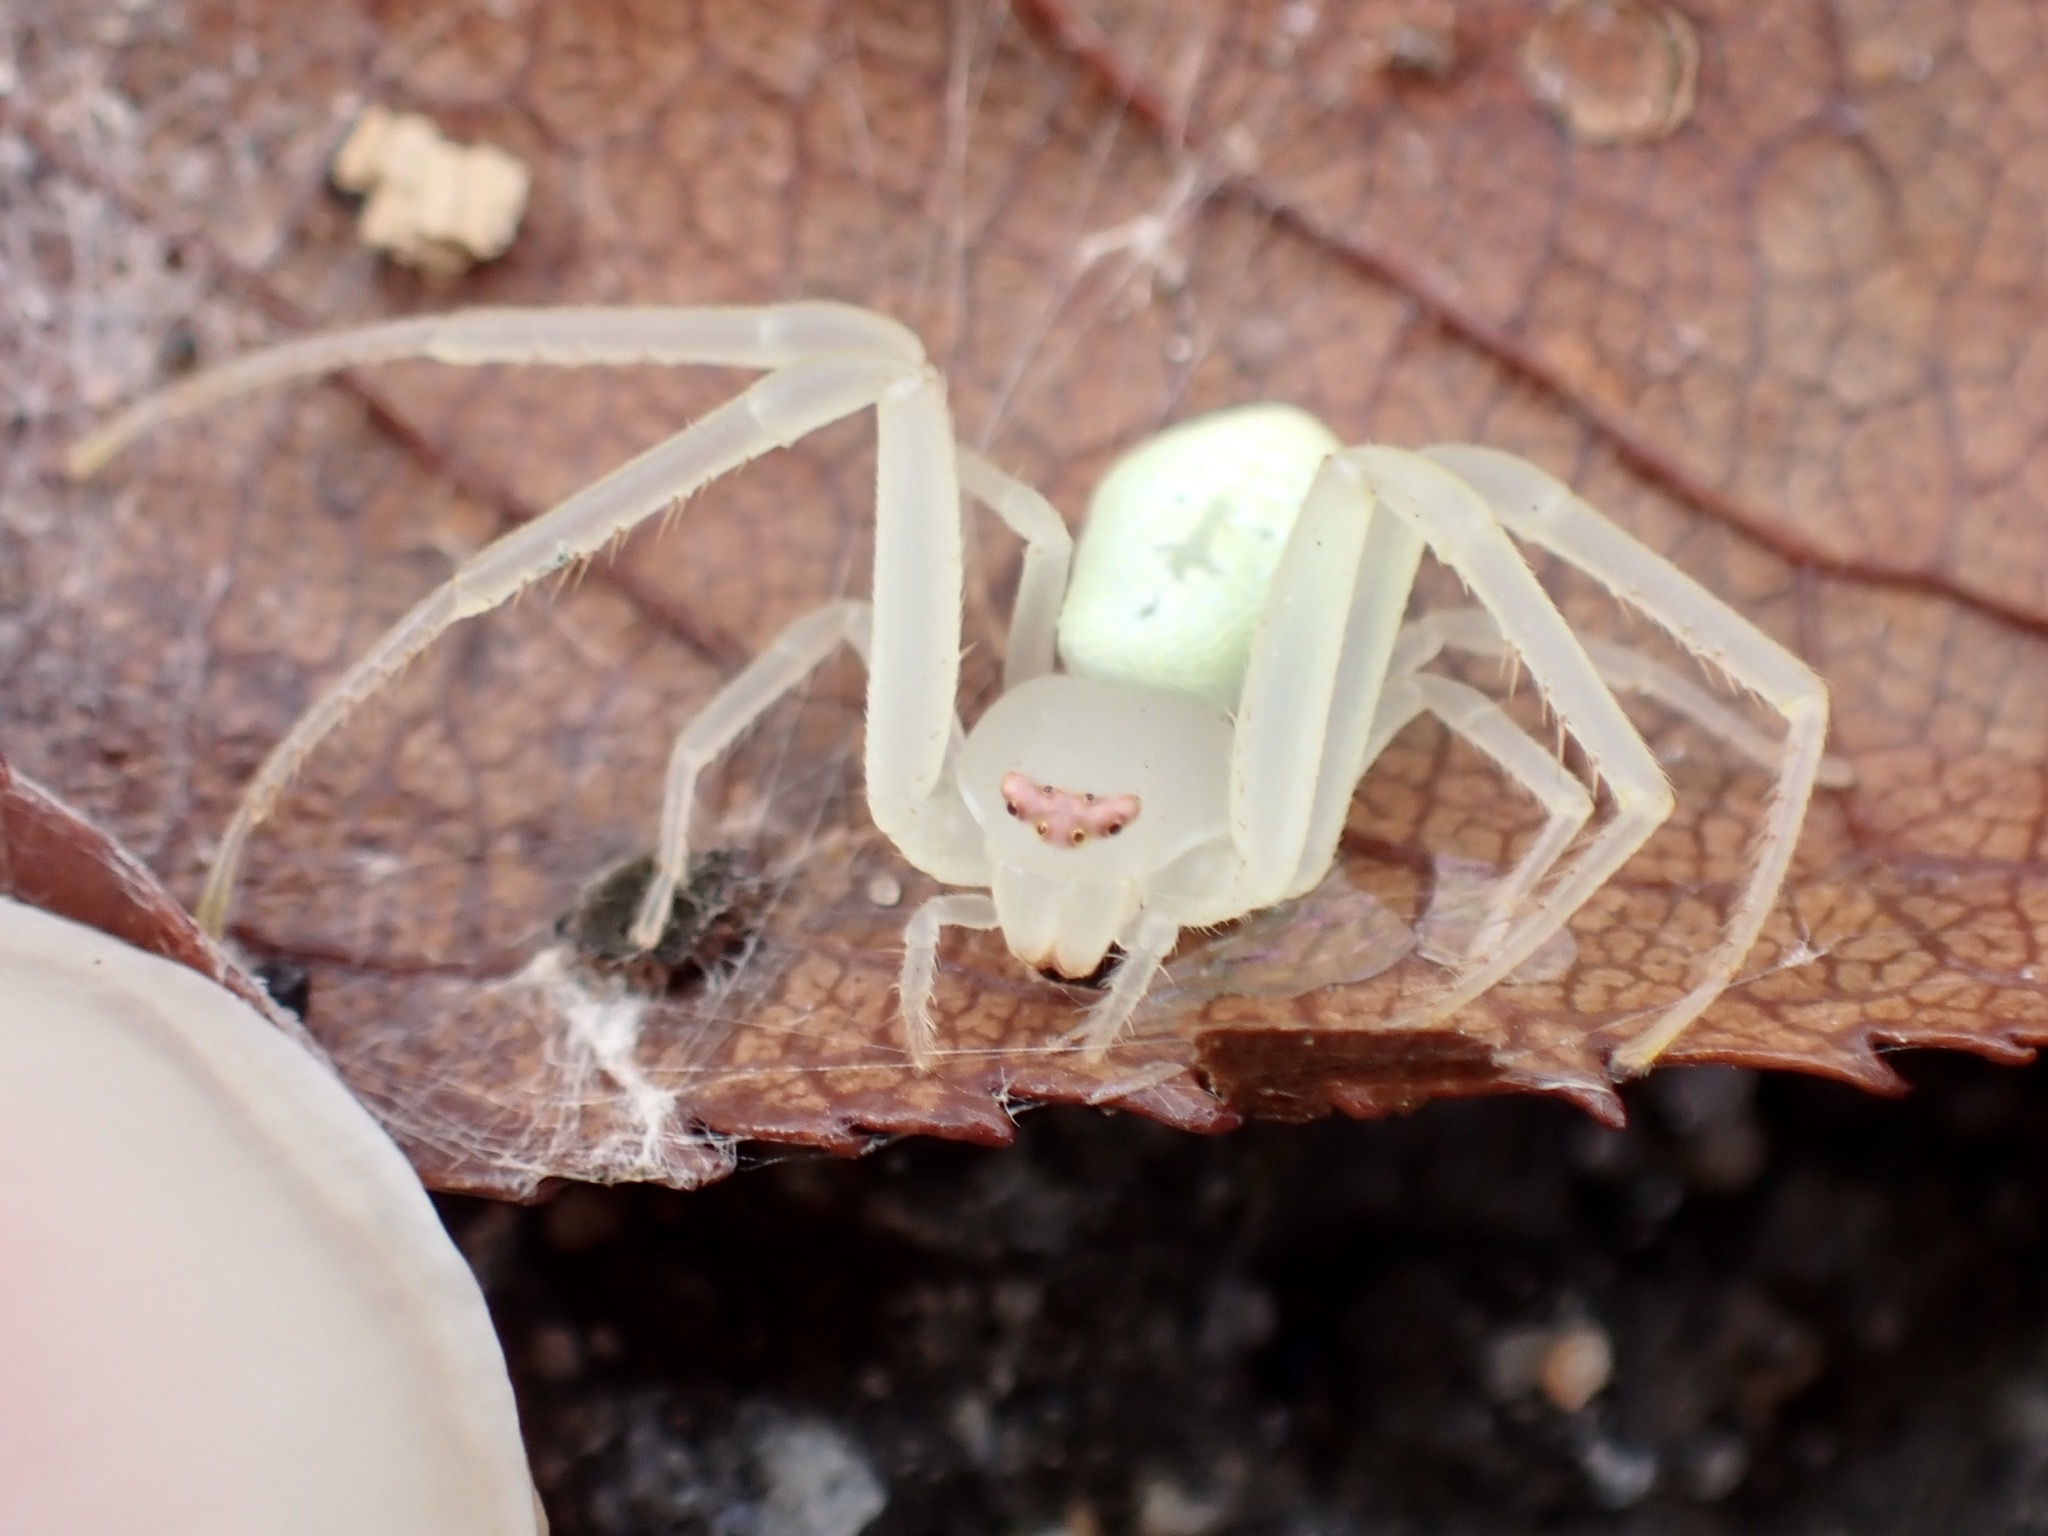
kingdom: Animalia
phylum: Arthropoda
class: Arachnida
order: Araneae
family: Thomisidae
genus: Misumessus
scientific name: Misumessus oblongus
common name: American green crab spider
